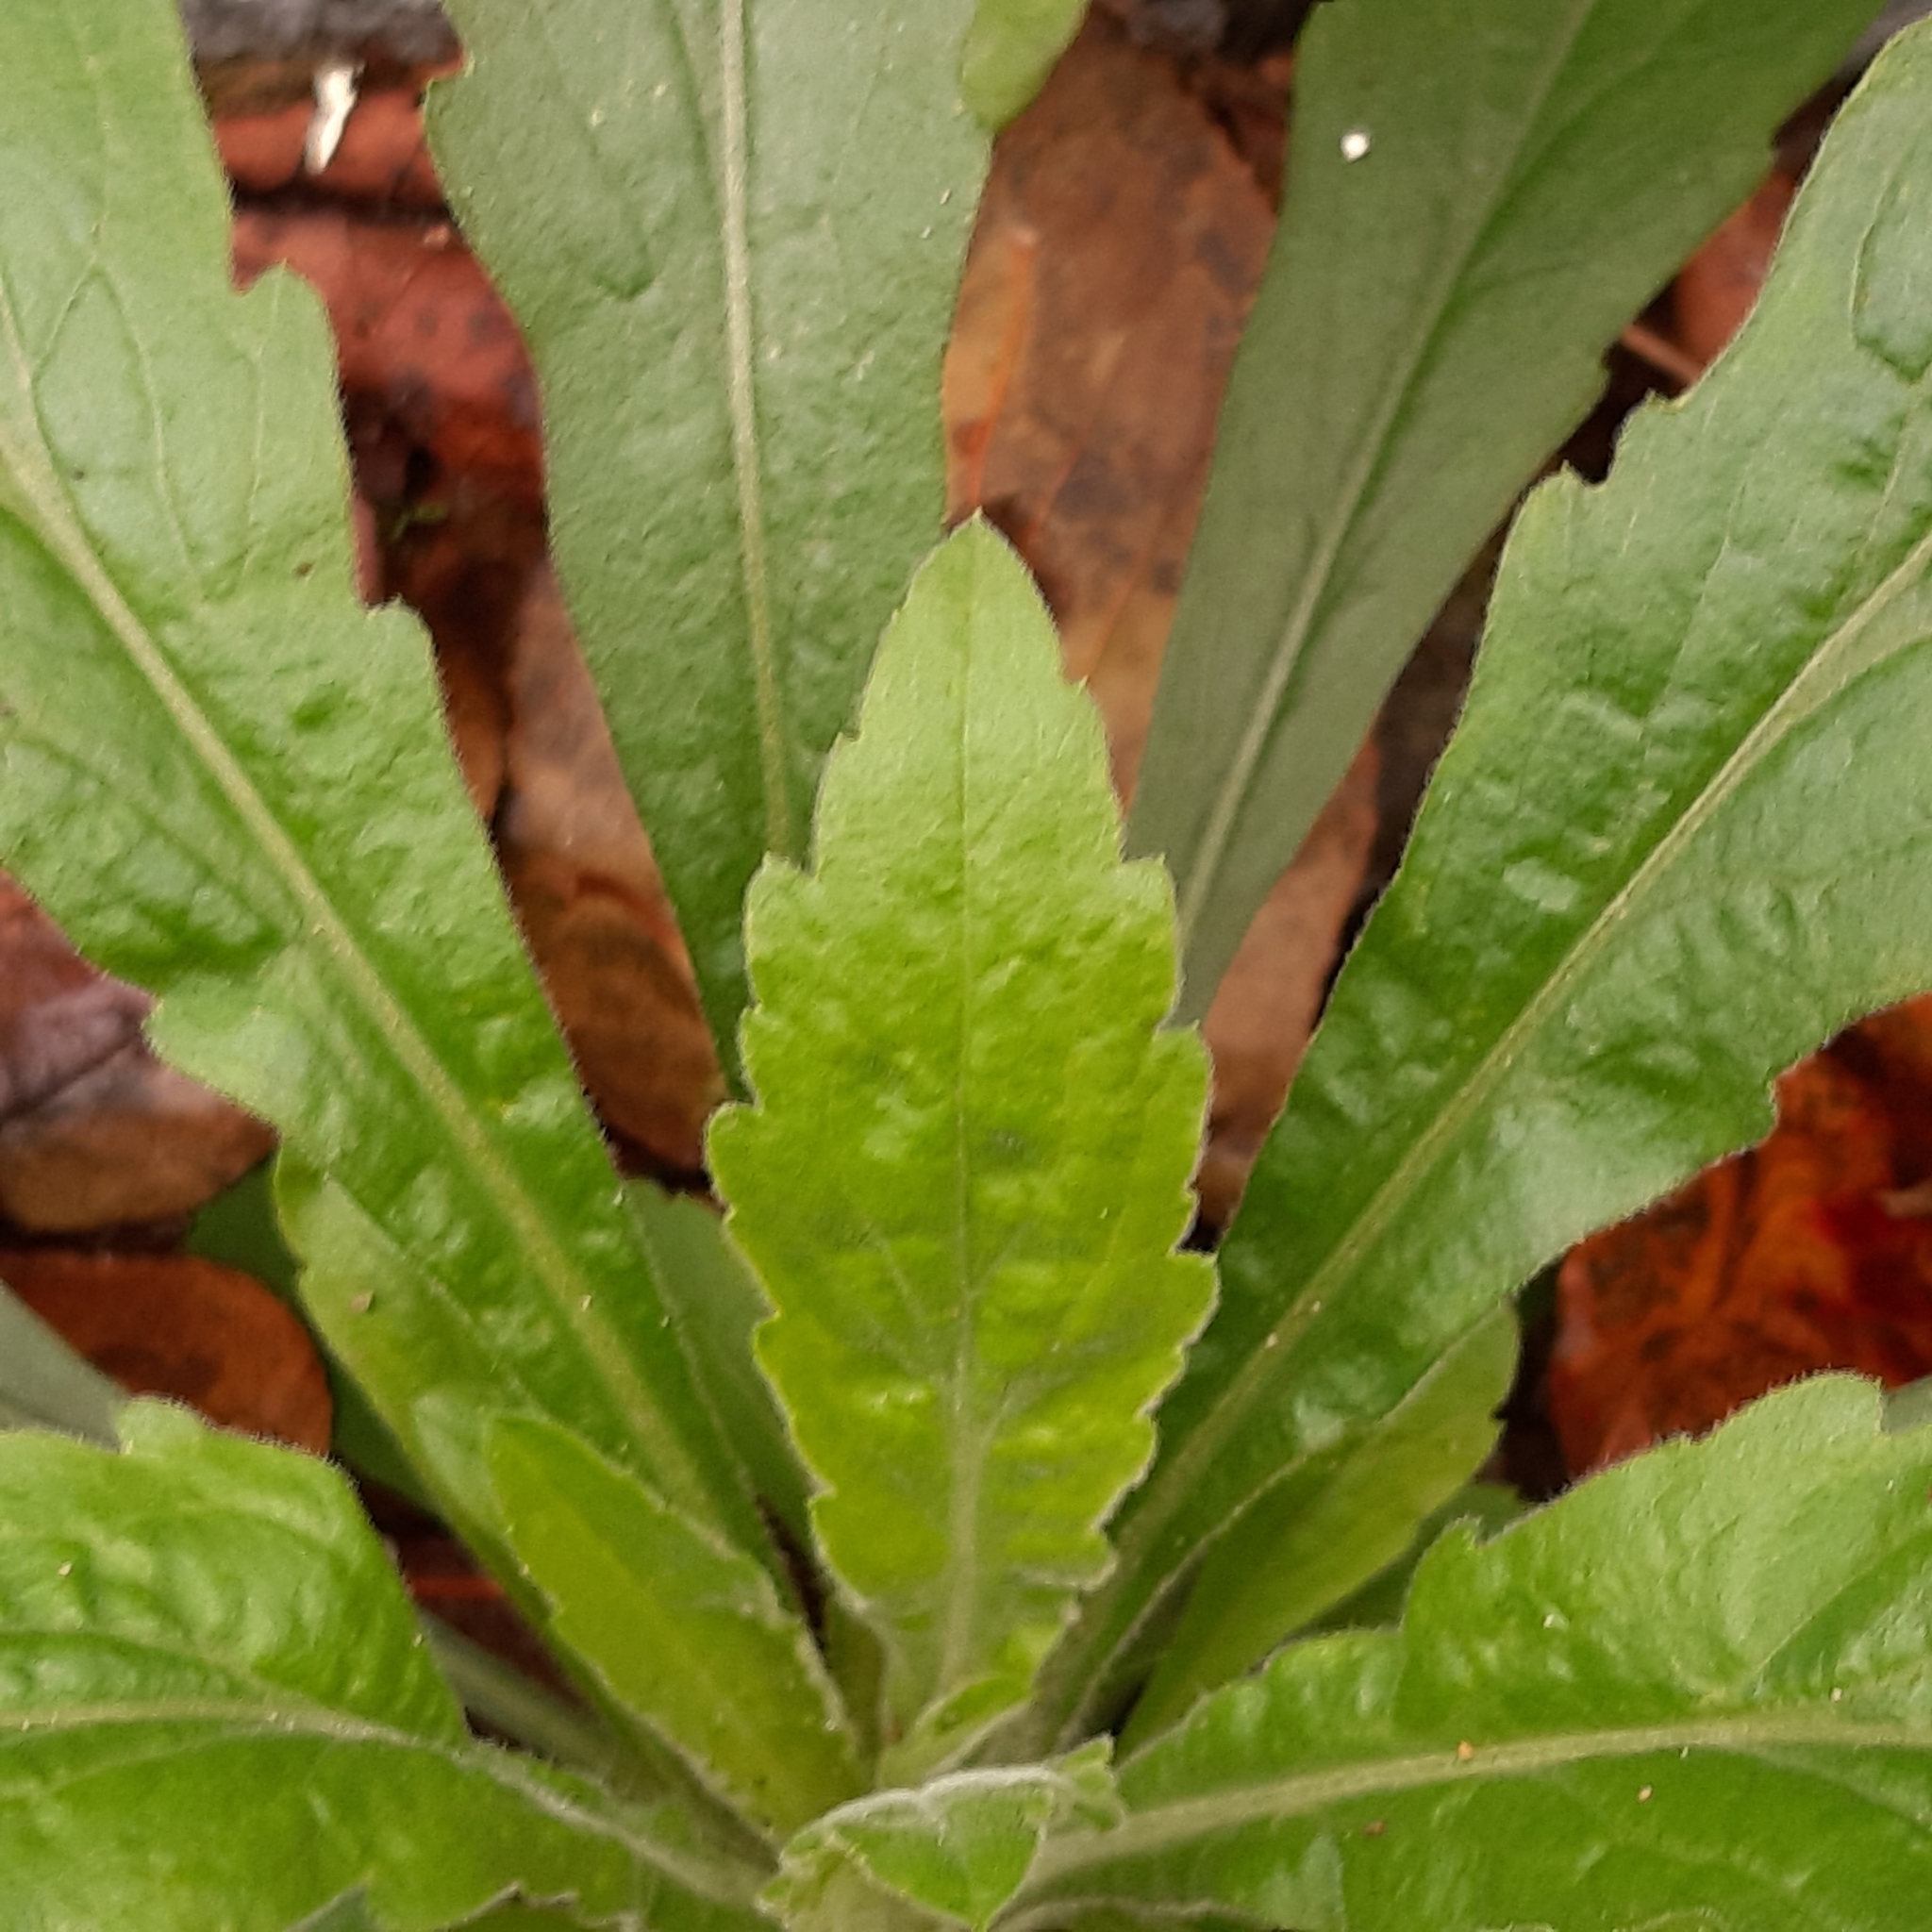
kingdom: Plantae
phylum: Tracheophyta
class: Magnoliopsida
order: Asterales
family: Asteraceae
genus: Erigeron
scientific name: Erigeron sumatrensis
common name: Daisy
